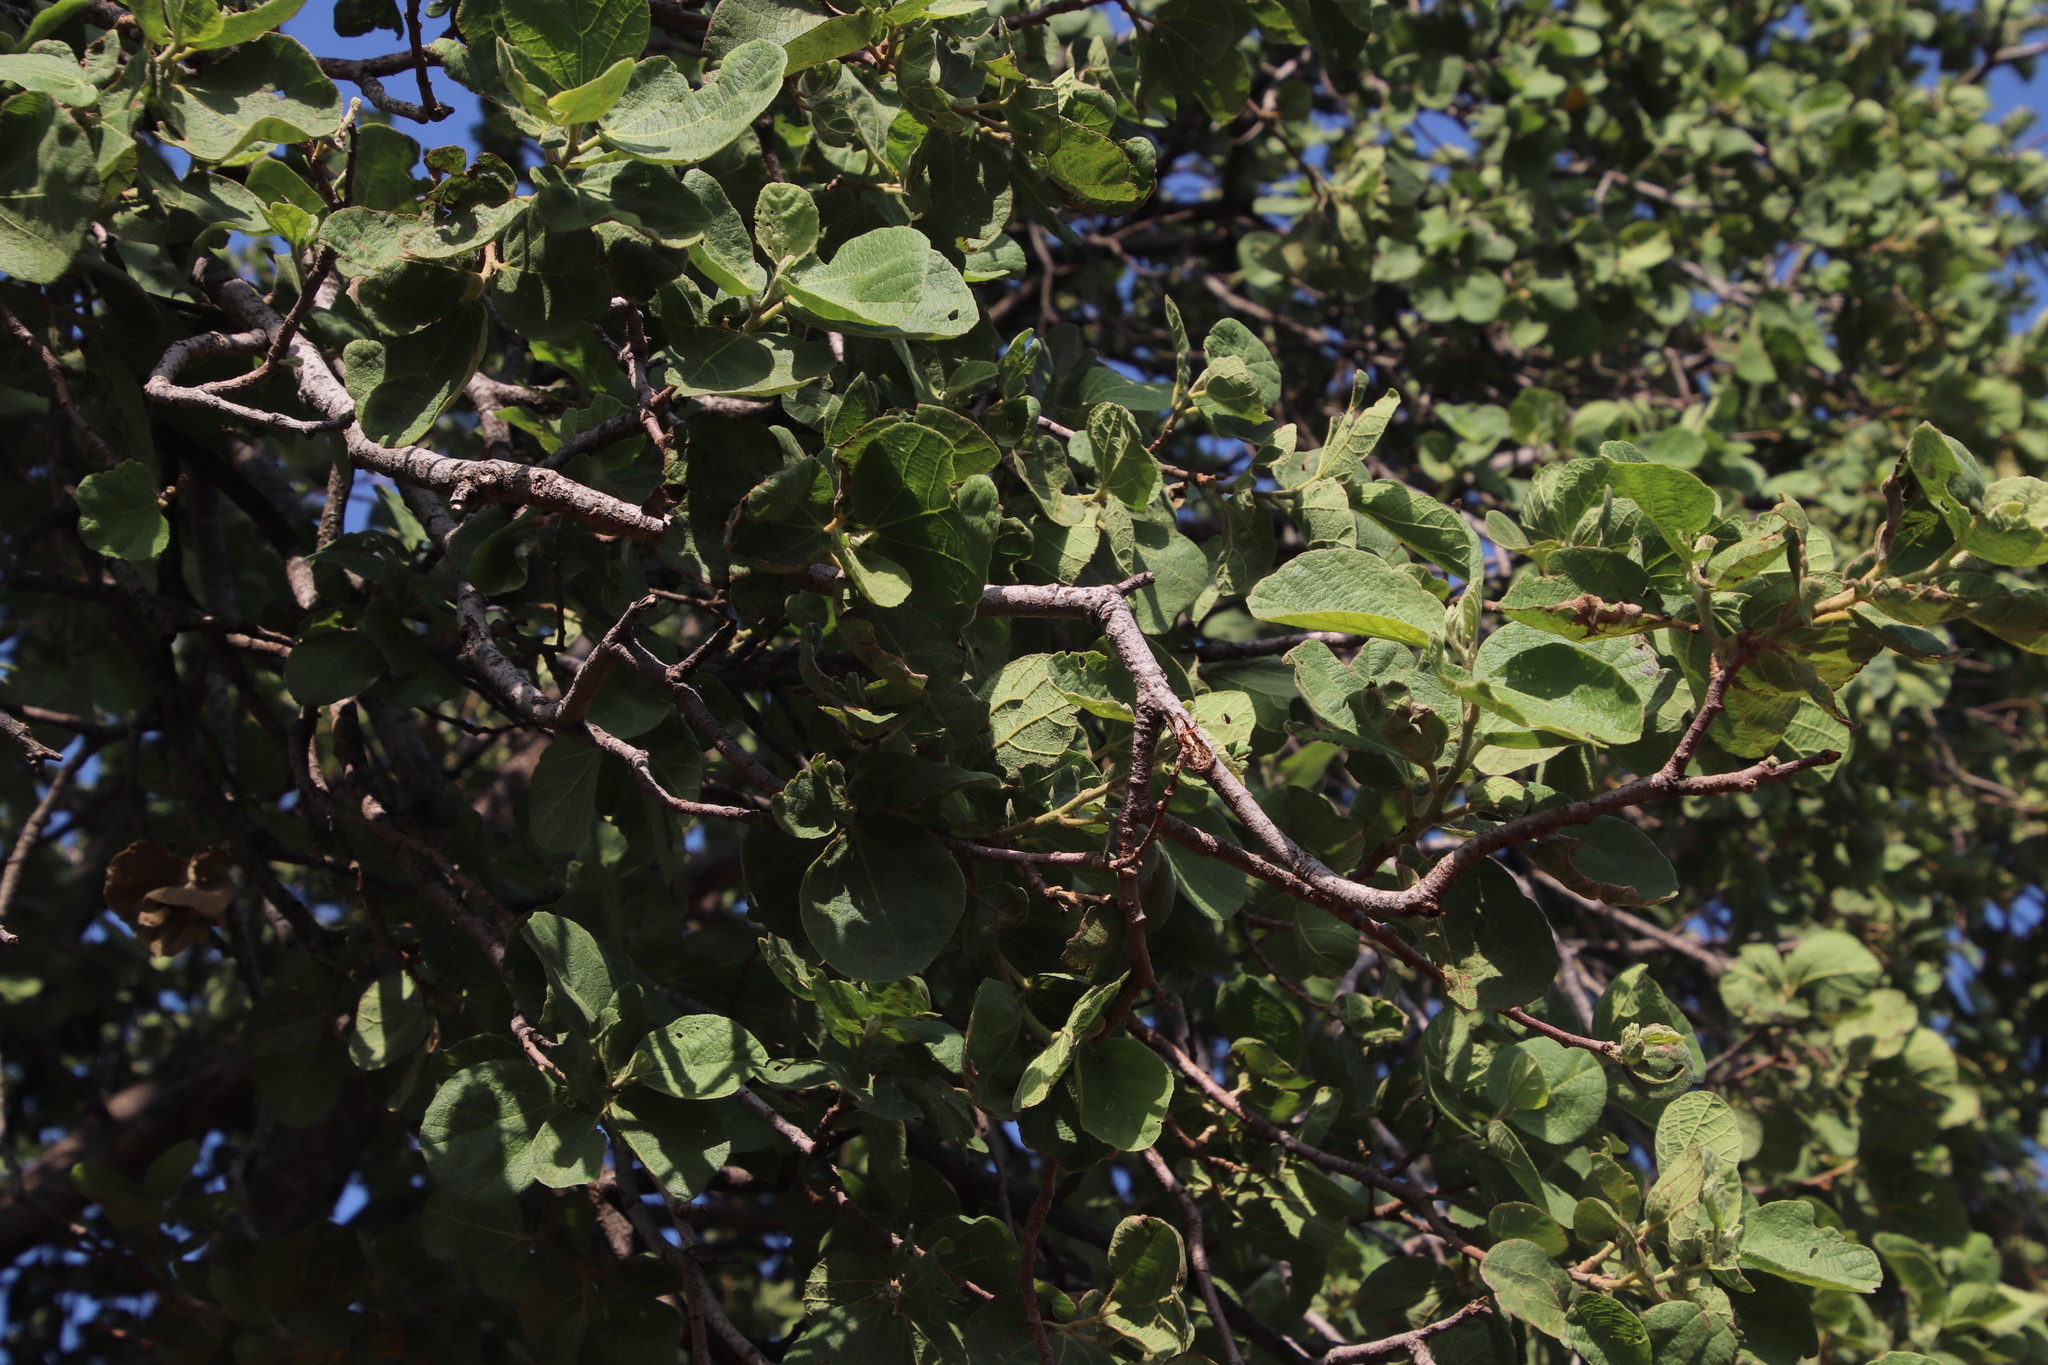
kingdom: Plantae
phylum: Tracheophyta
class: Magnoliopsida
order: Malvales
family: Malvaceae
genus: Dombeya
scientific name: Dombeya rotundifolia
